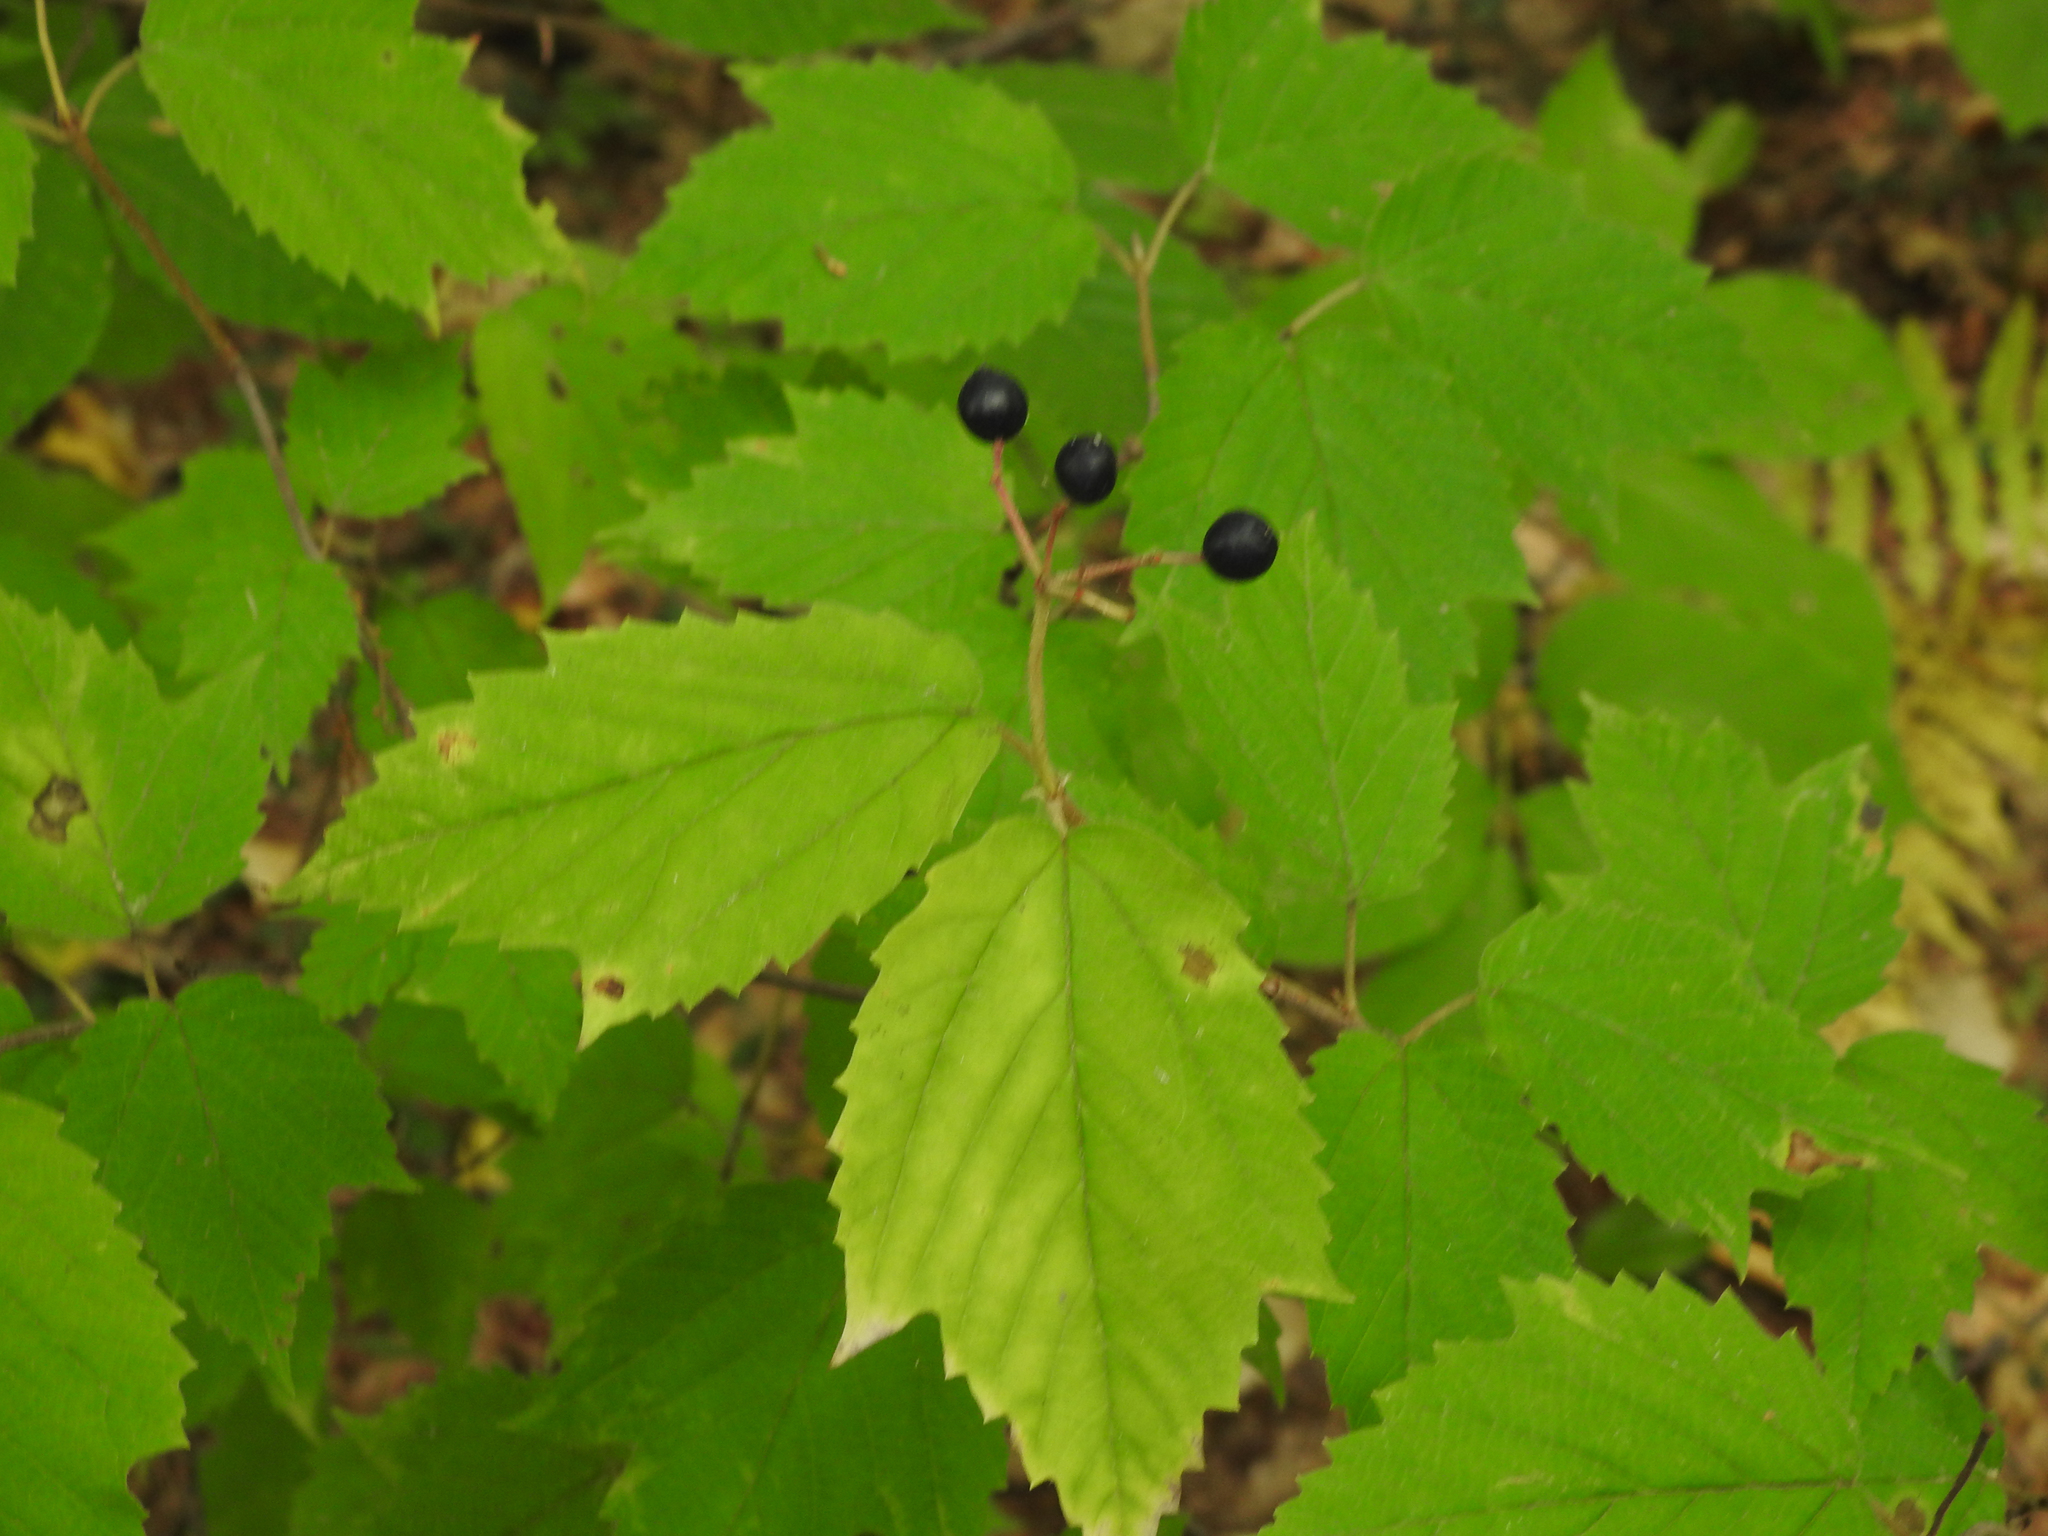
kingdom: Plantae
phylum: Tracheophyta
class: Magnoliopsida
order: Dipsacales
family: Viburnaceae
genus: Viburnum
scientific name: Viburnum acerifolium
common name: Dockmackie
